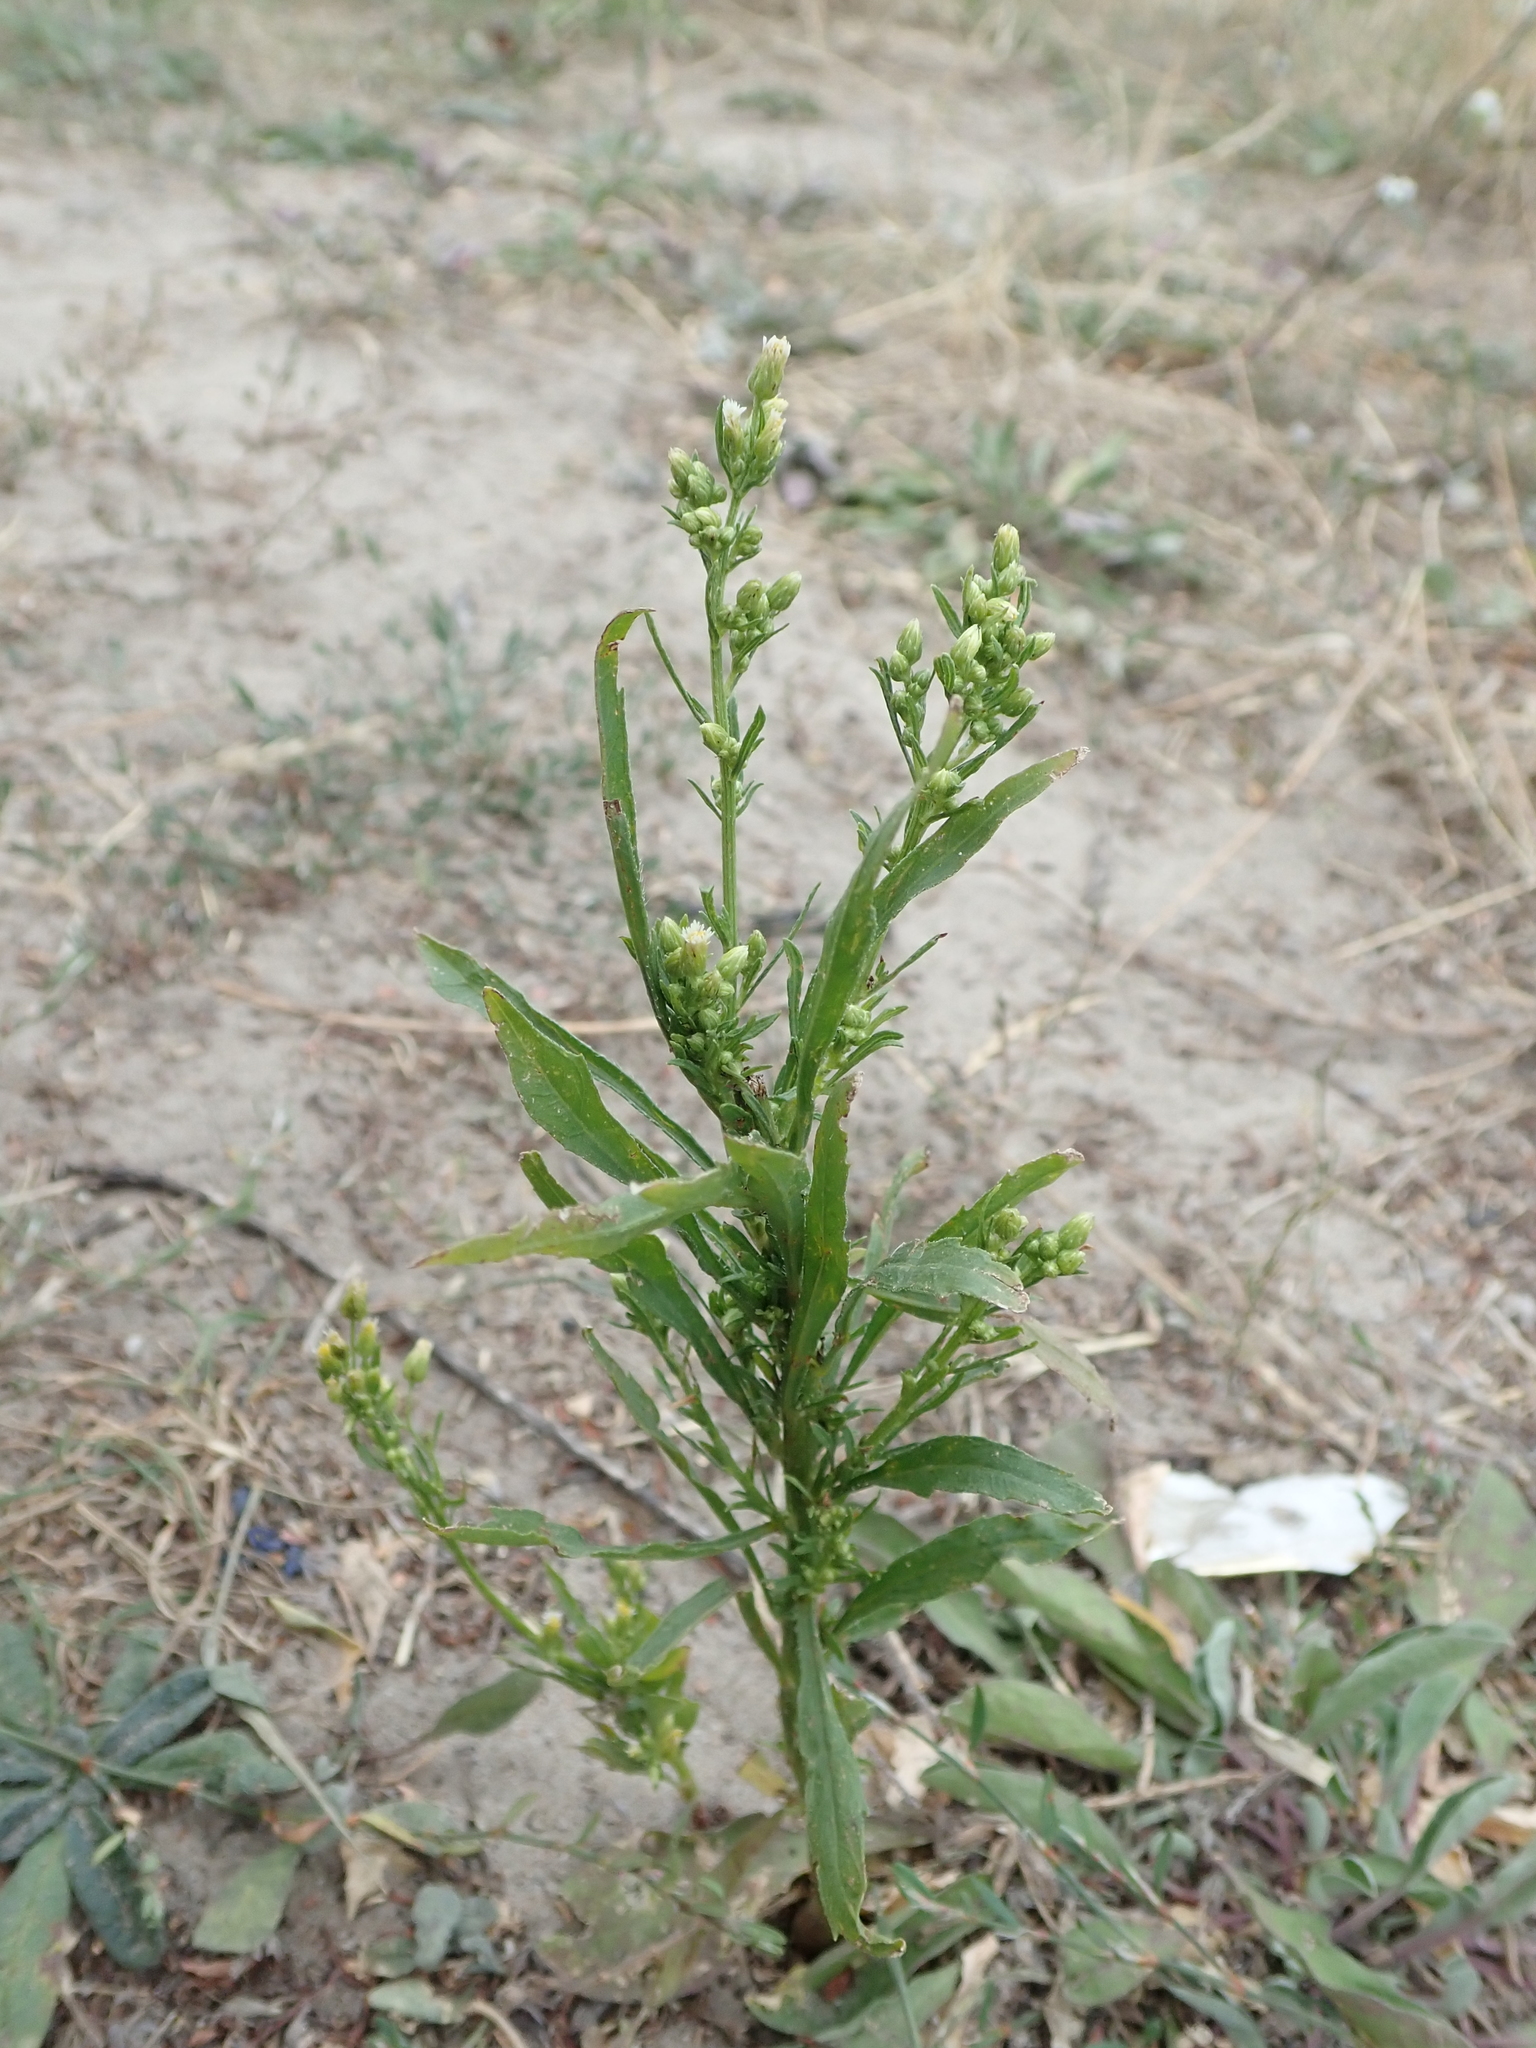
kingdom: Plantae
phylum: Tracheophyta
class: Magnoliopsida
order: Asterales
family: Asteraceae
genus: Erigeron
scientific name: Erigeron canadensis
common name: Canadian fleabane
